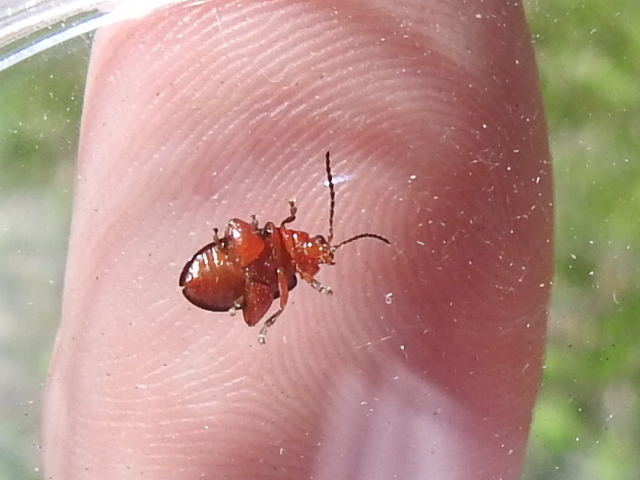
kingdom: Animalia
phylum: Arthropoda
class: Insecta
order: Coleoptera
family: Chrysomelidae
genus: Asphaera
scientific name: Asphaera lustrans
